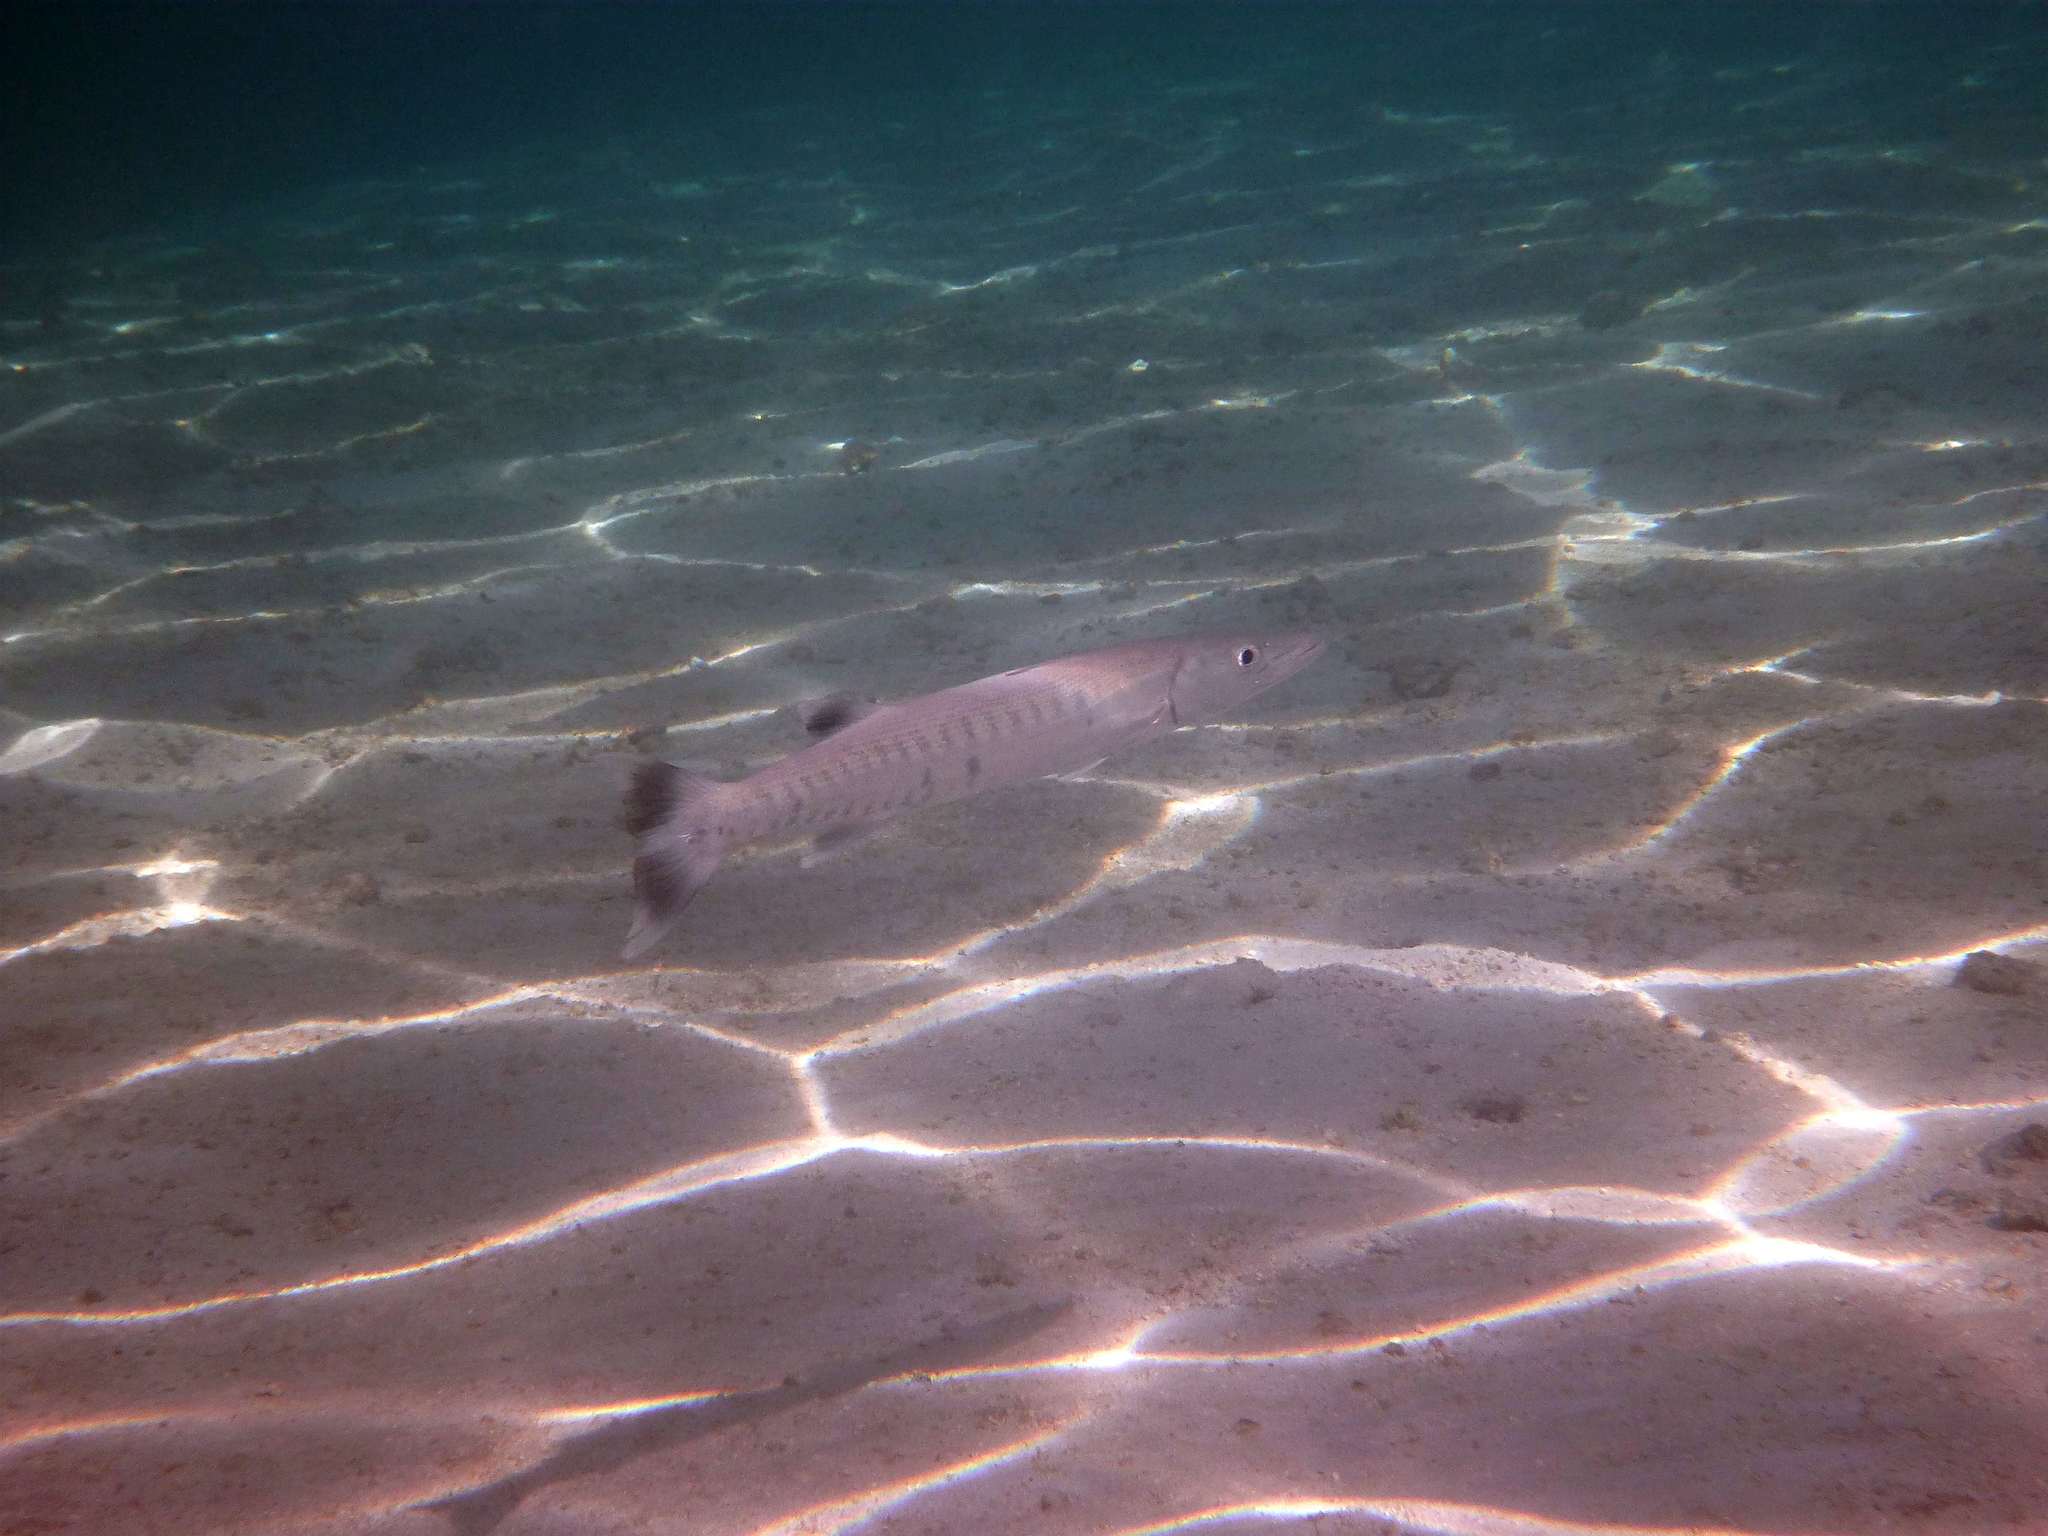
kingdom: Animalia
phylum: Chordata
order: Perciformes
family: Sphyraenidae
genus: Sphyraena
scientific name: Sphyraena barracuda
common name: Great barracuda
